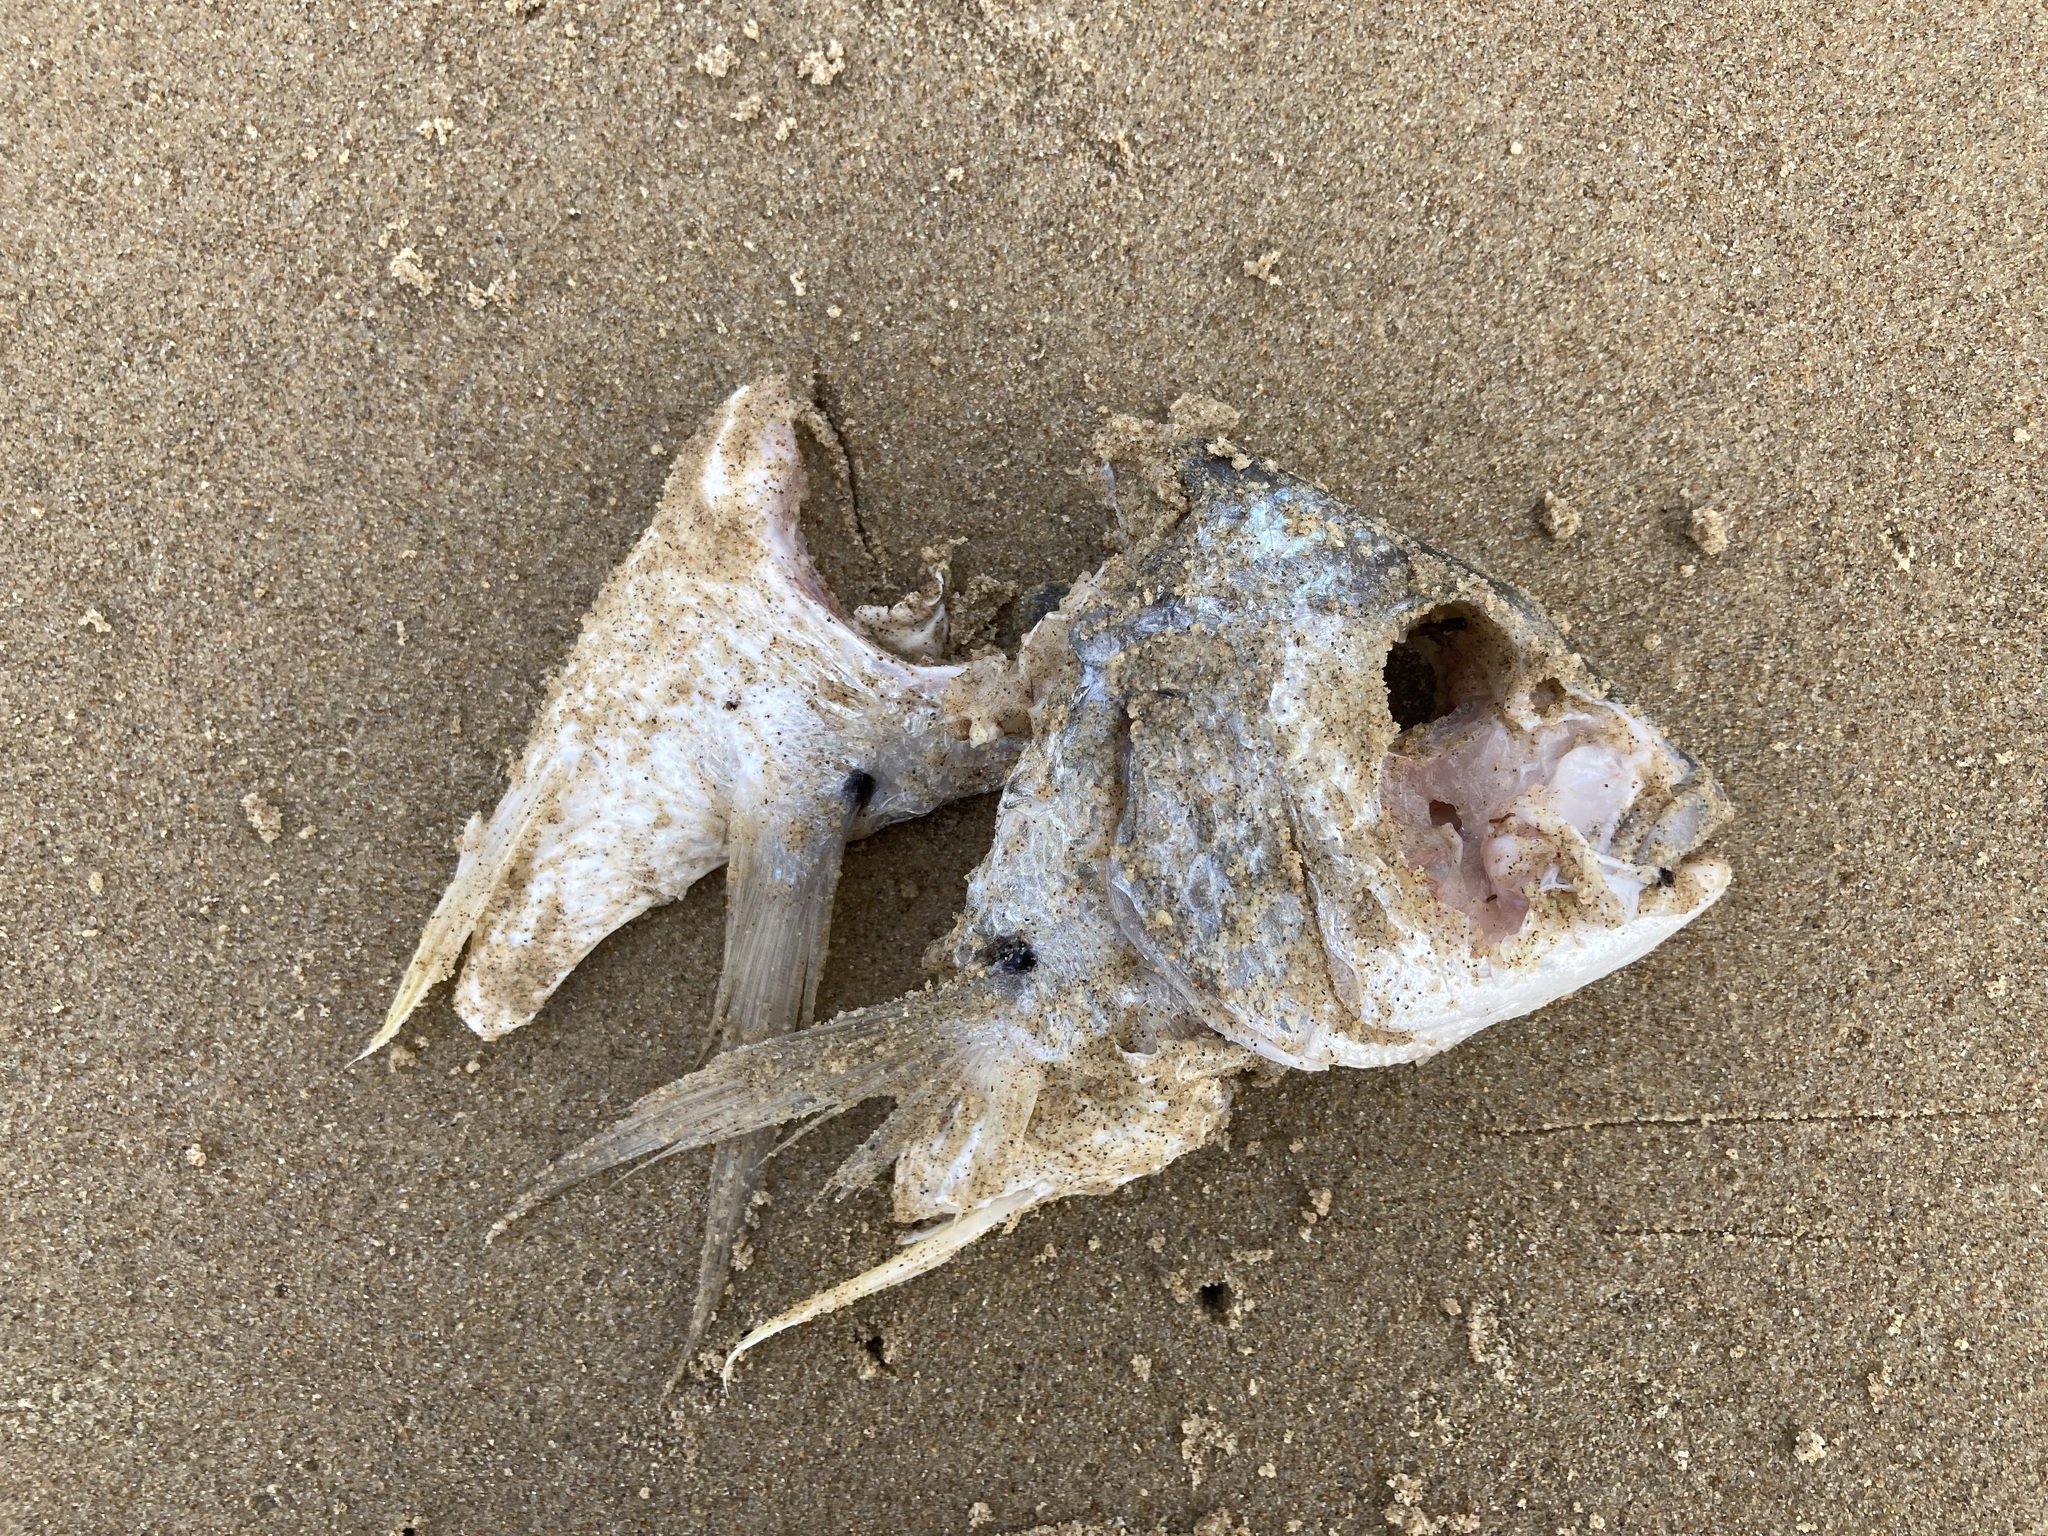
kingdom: Animalia
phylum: Chordata
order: Perciformes
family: Sparidae
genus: Acanthopagrus
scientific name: Acanthopagrus australis
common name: Surf bream
